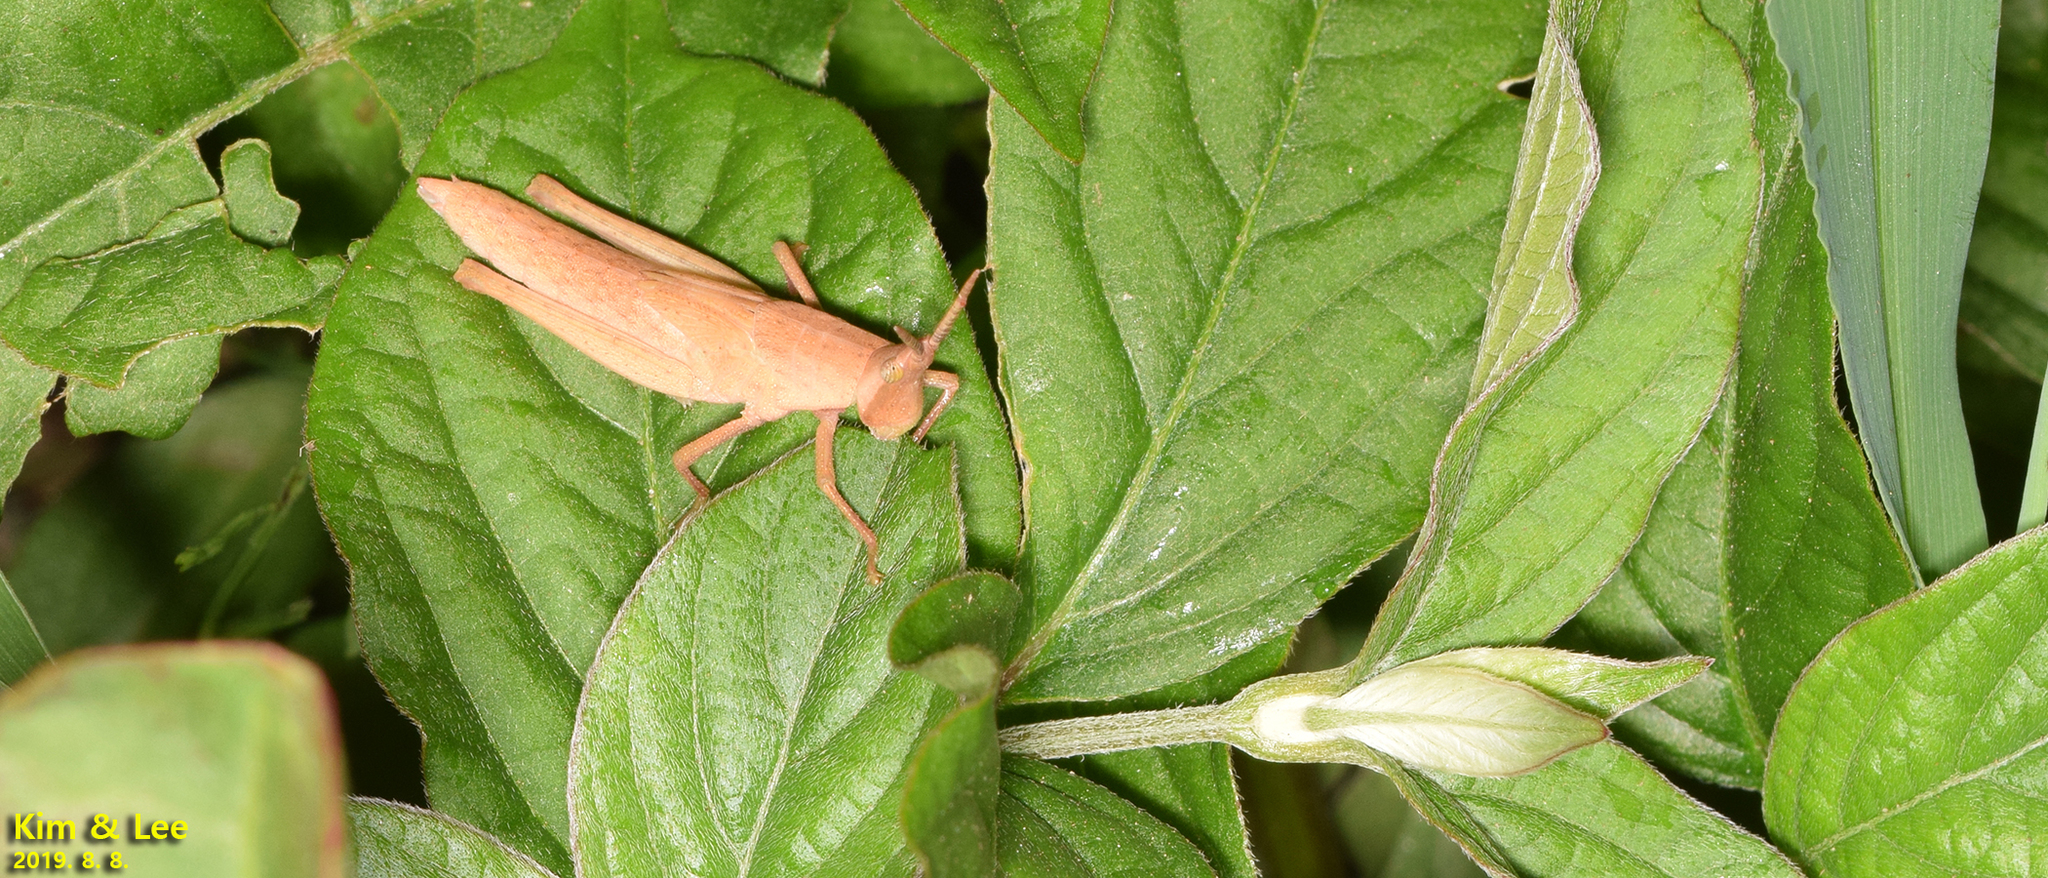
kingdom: Animalia
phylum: Arthropoda
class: Insecta
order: Orthoptera
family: Pyrgomorphidae
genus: Atractomorpha
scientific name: Atractomorpha lata
